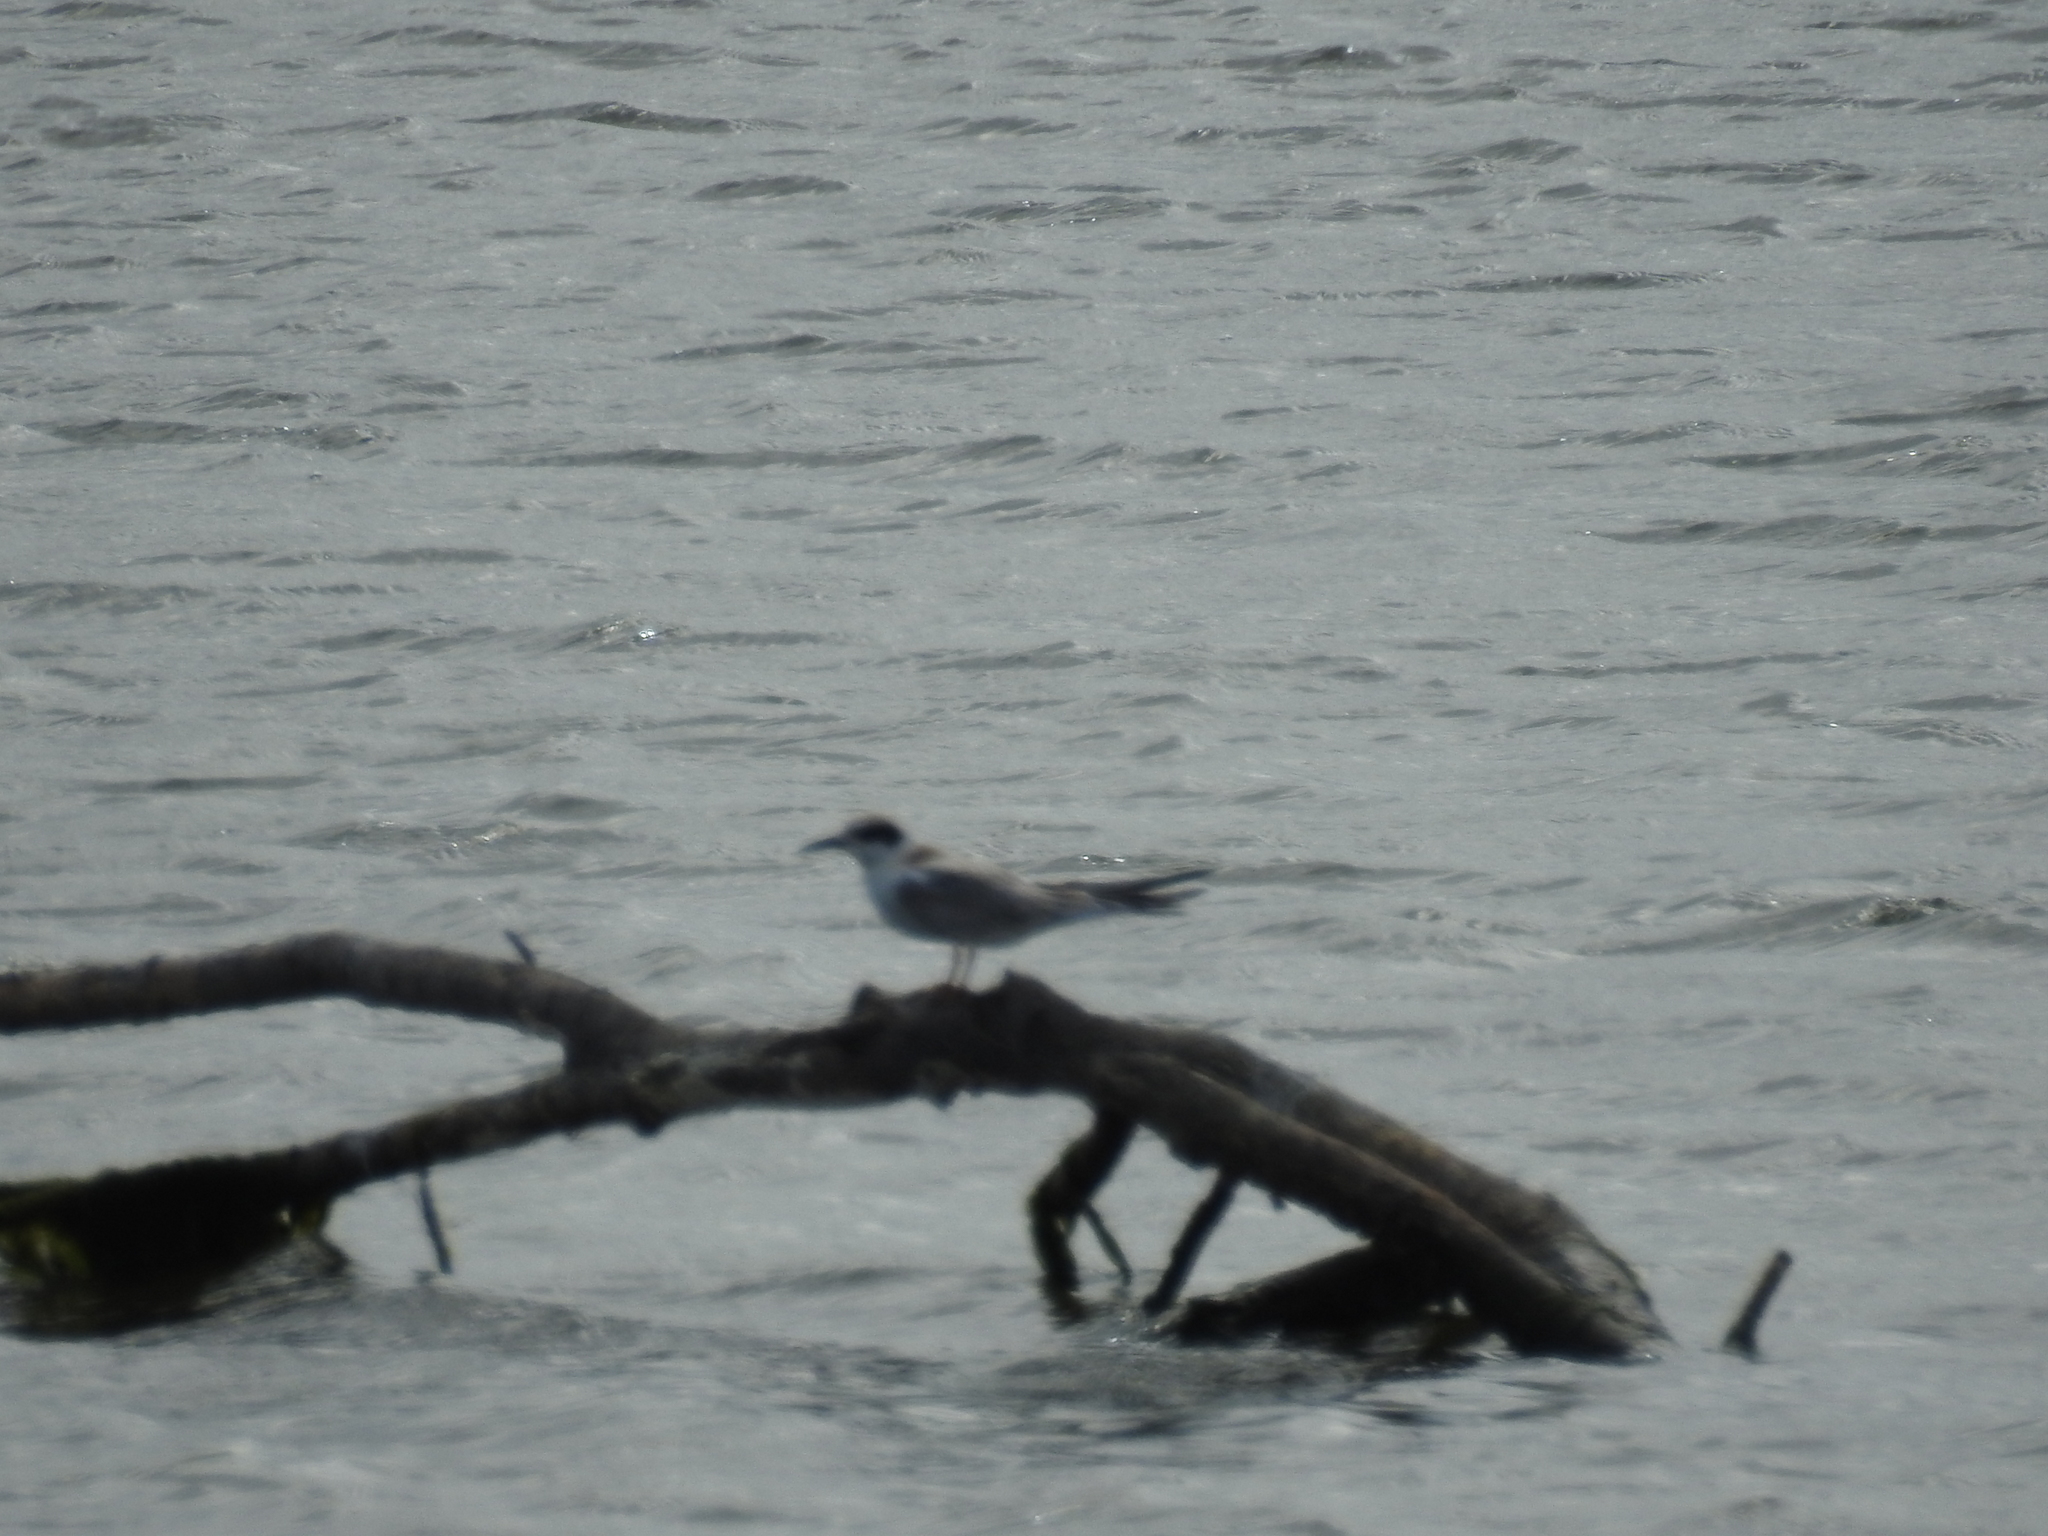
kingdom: Animalia
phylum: Chordata
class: Aves
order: Charadriiformes
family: Laridae
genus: Sterna
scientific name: Sterna forsteri
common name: Forster's tern
